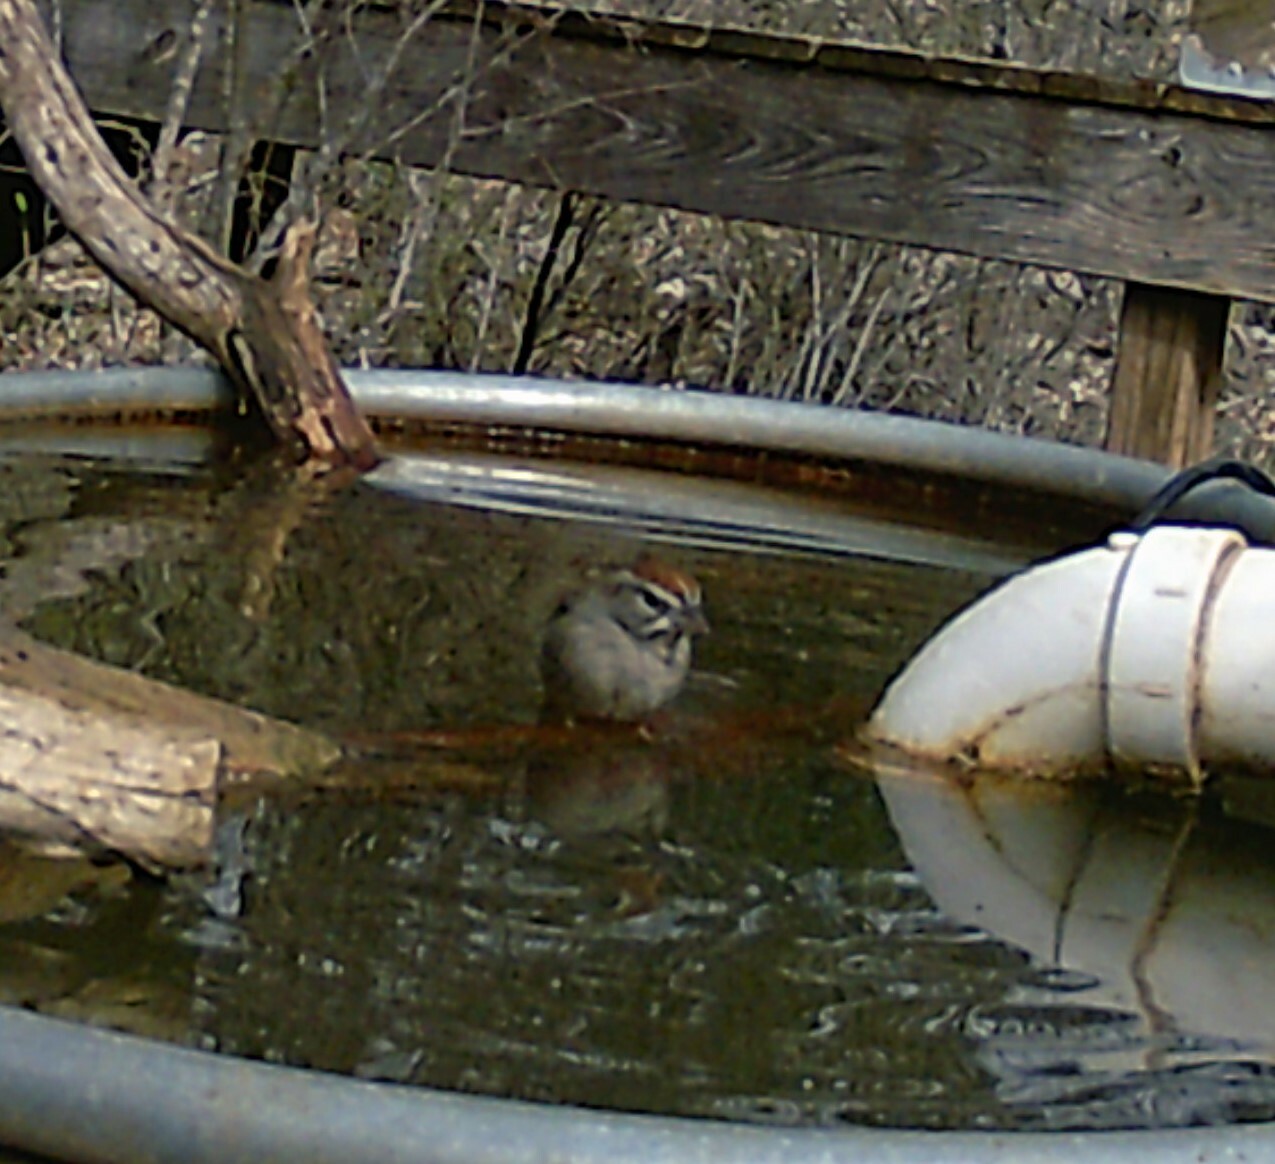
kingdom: Animalia
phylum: Chordata
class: Aves
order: Passeriformes
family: Passerellidae
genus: Aimophila
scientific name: Aimophila ruficeps
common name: Rufous-crowned sparrow
